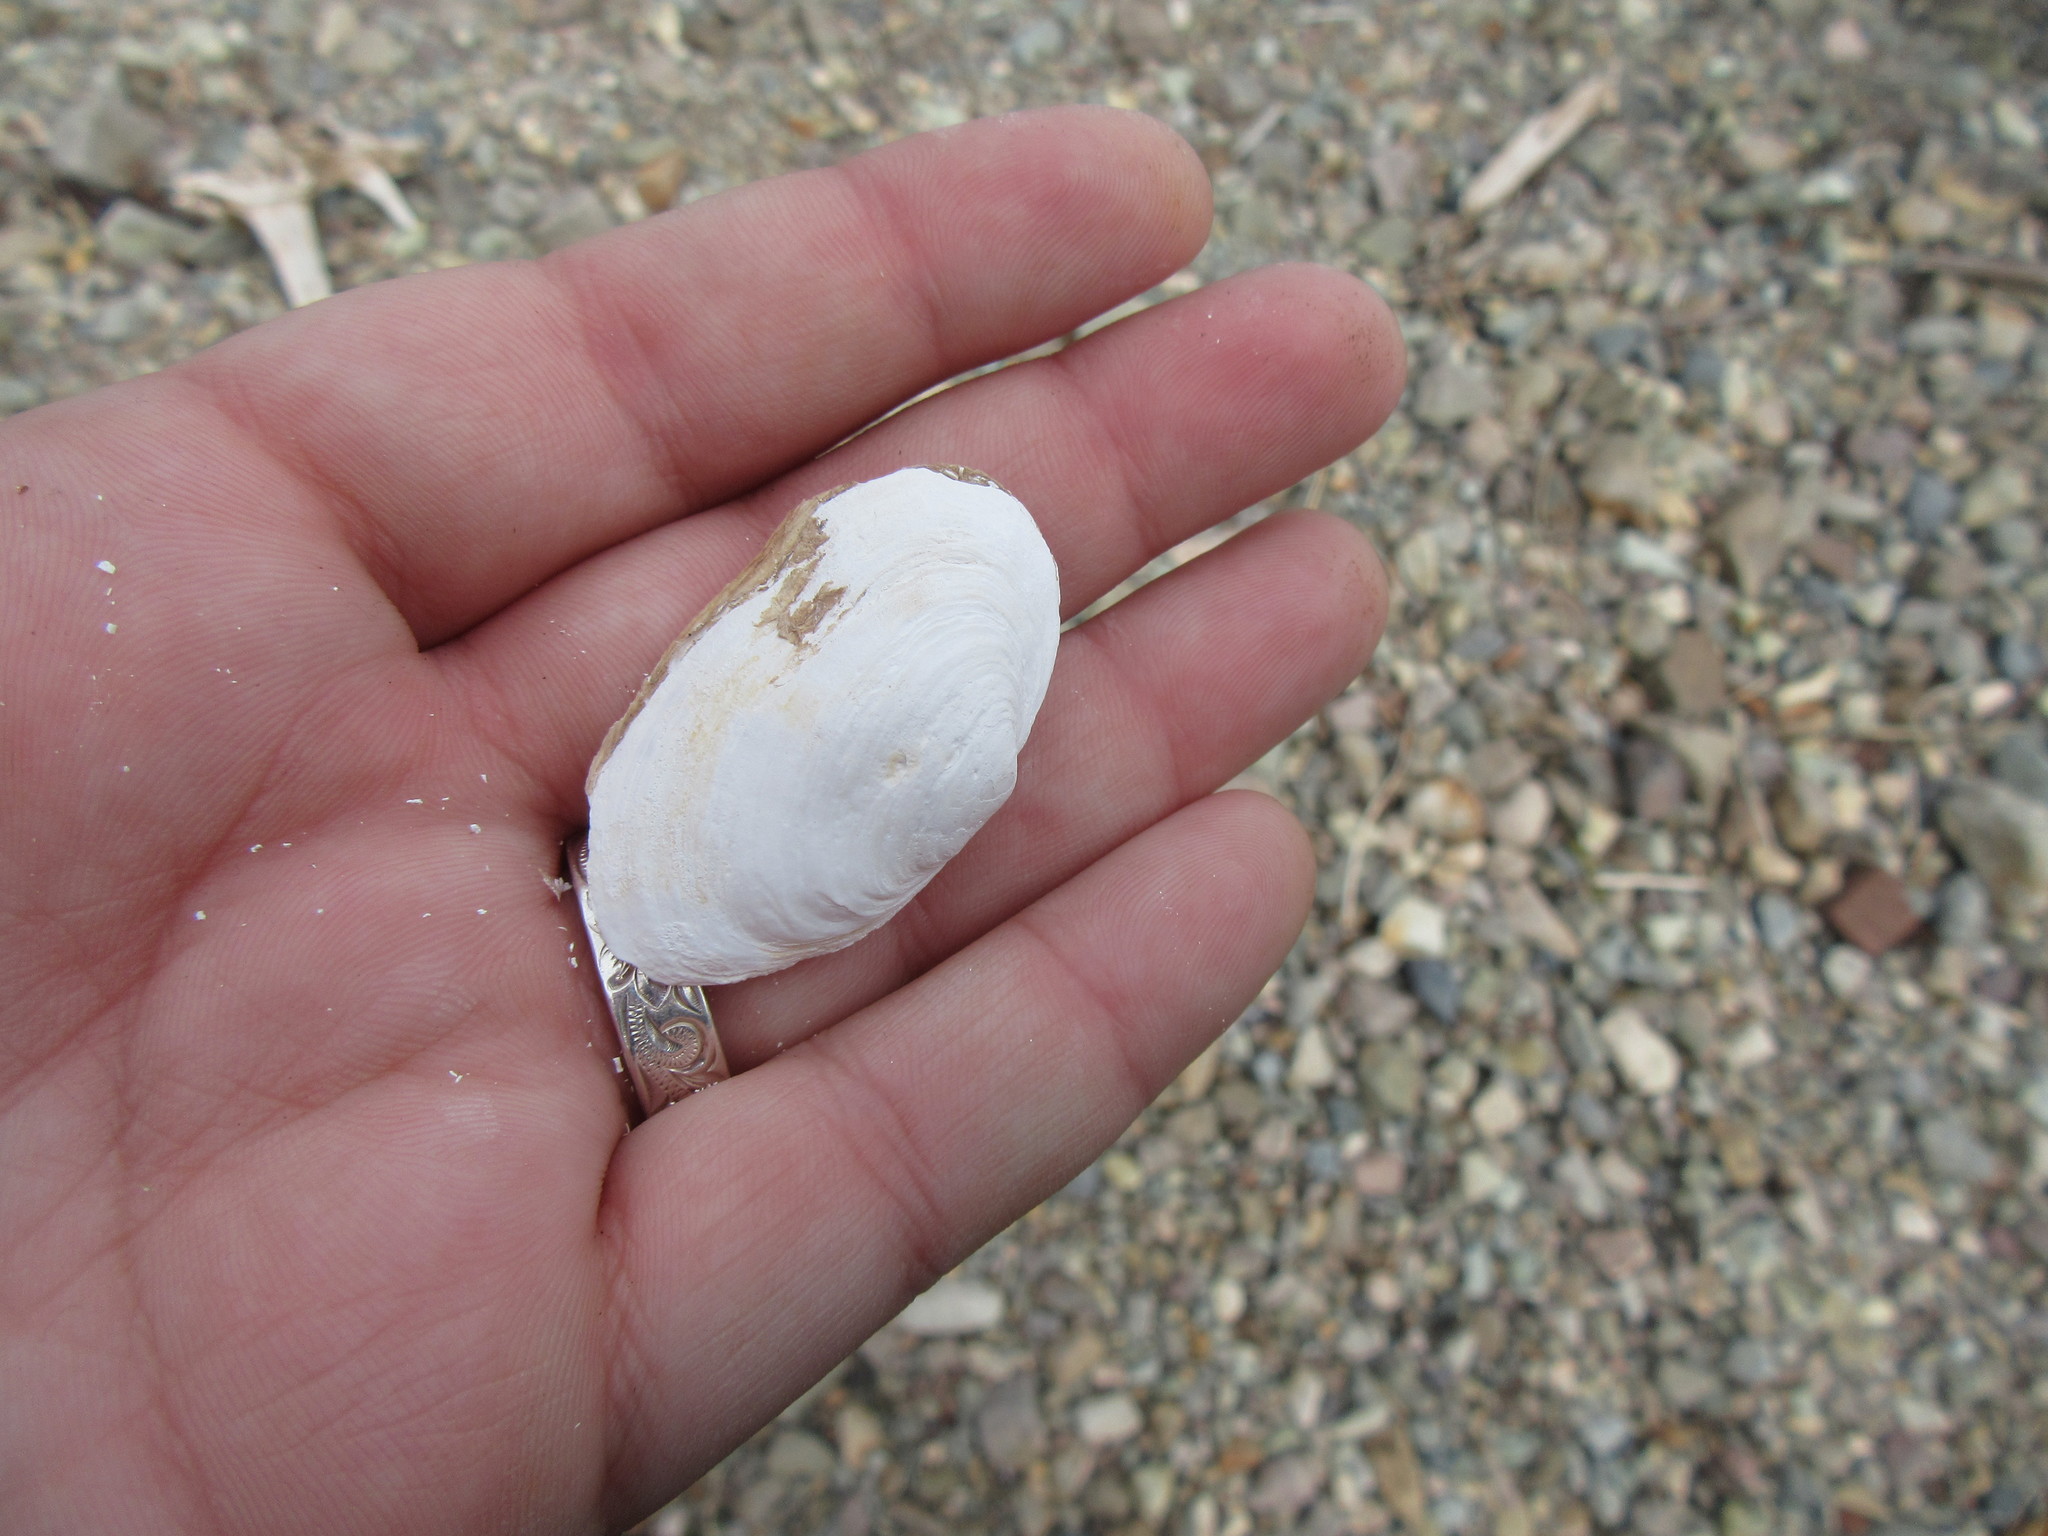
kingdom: Animalia
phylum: Mollusca
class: Bivalvia
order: Myida
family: Myidae
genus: Mya
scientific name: Mya arenaria
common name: Soft-shelled clam
